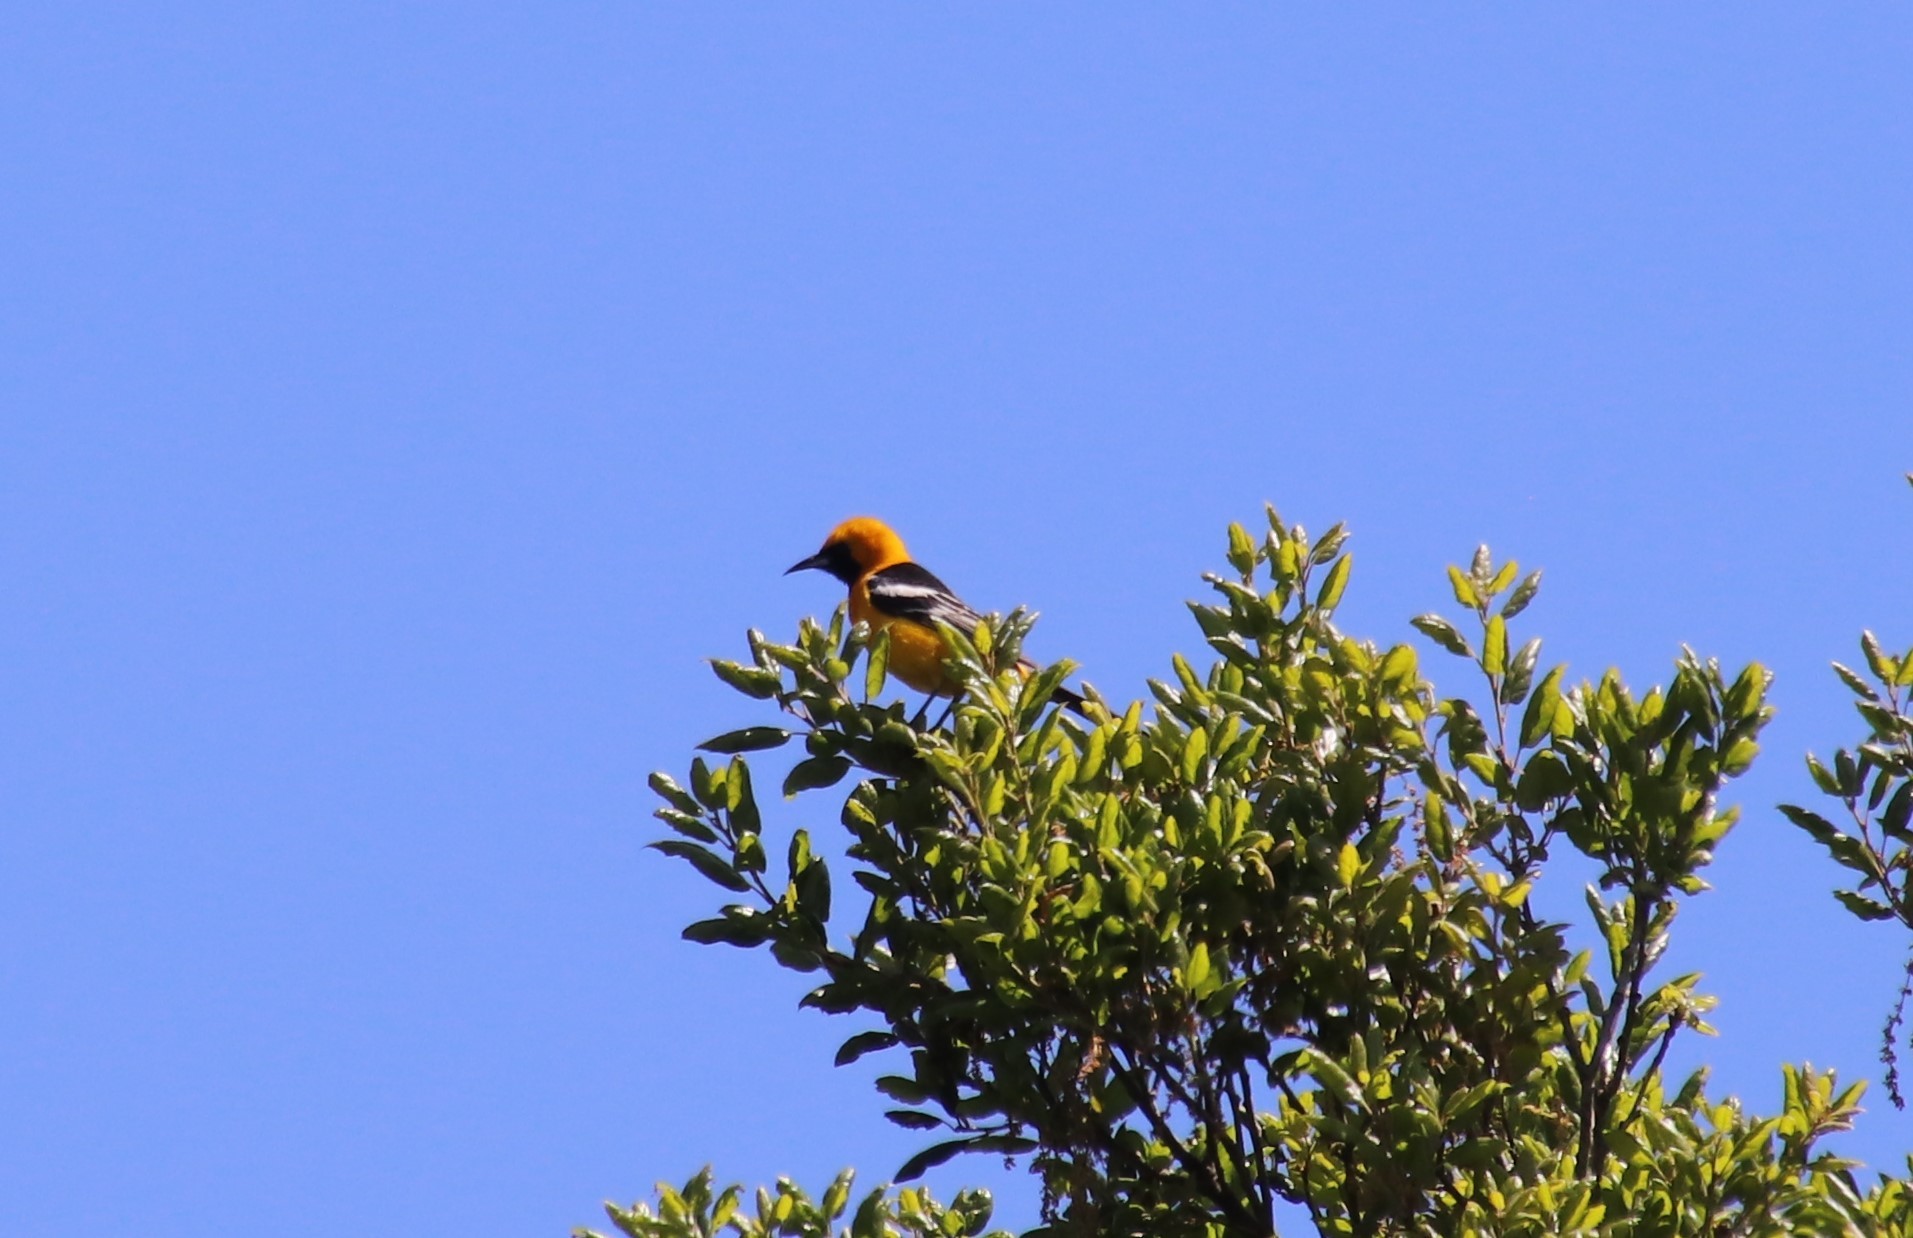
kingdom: Animalia
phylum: Chordata
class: Aves
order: Passeriformes
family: Icteridae
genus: Icterus
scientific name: Icterus cucullatus
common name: Hooded oriole
